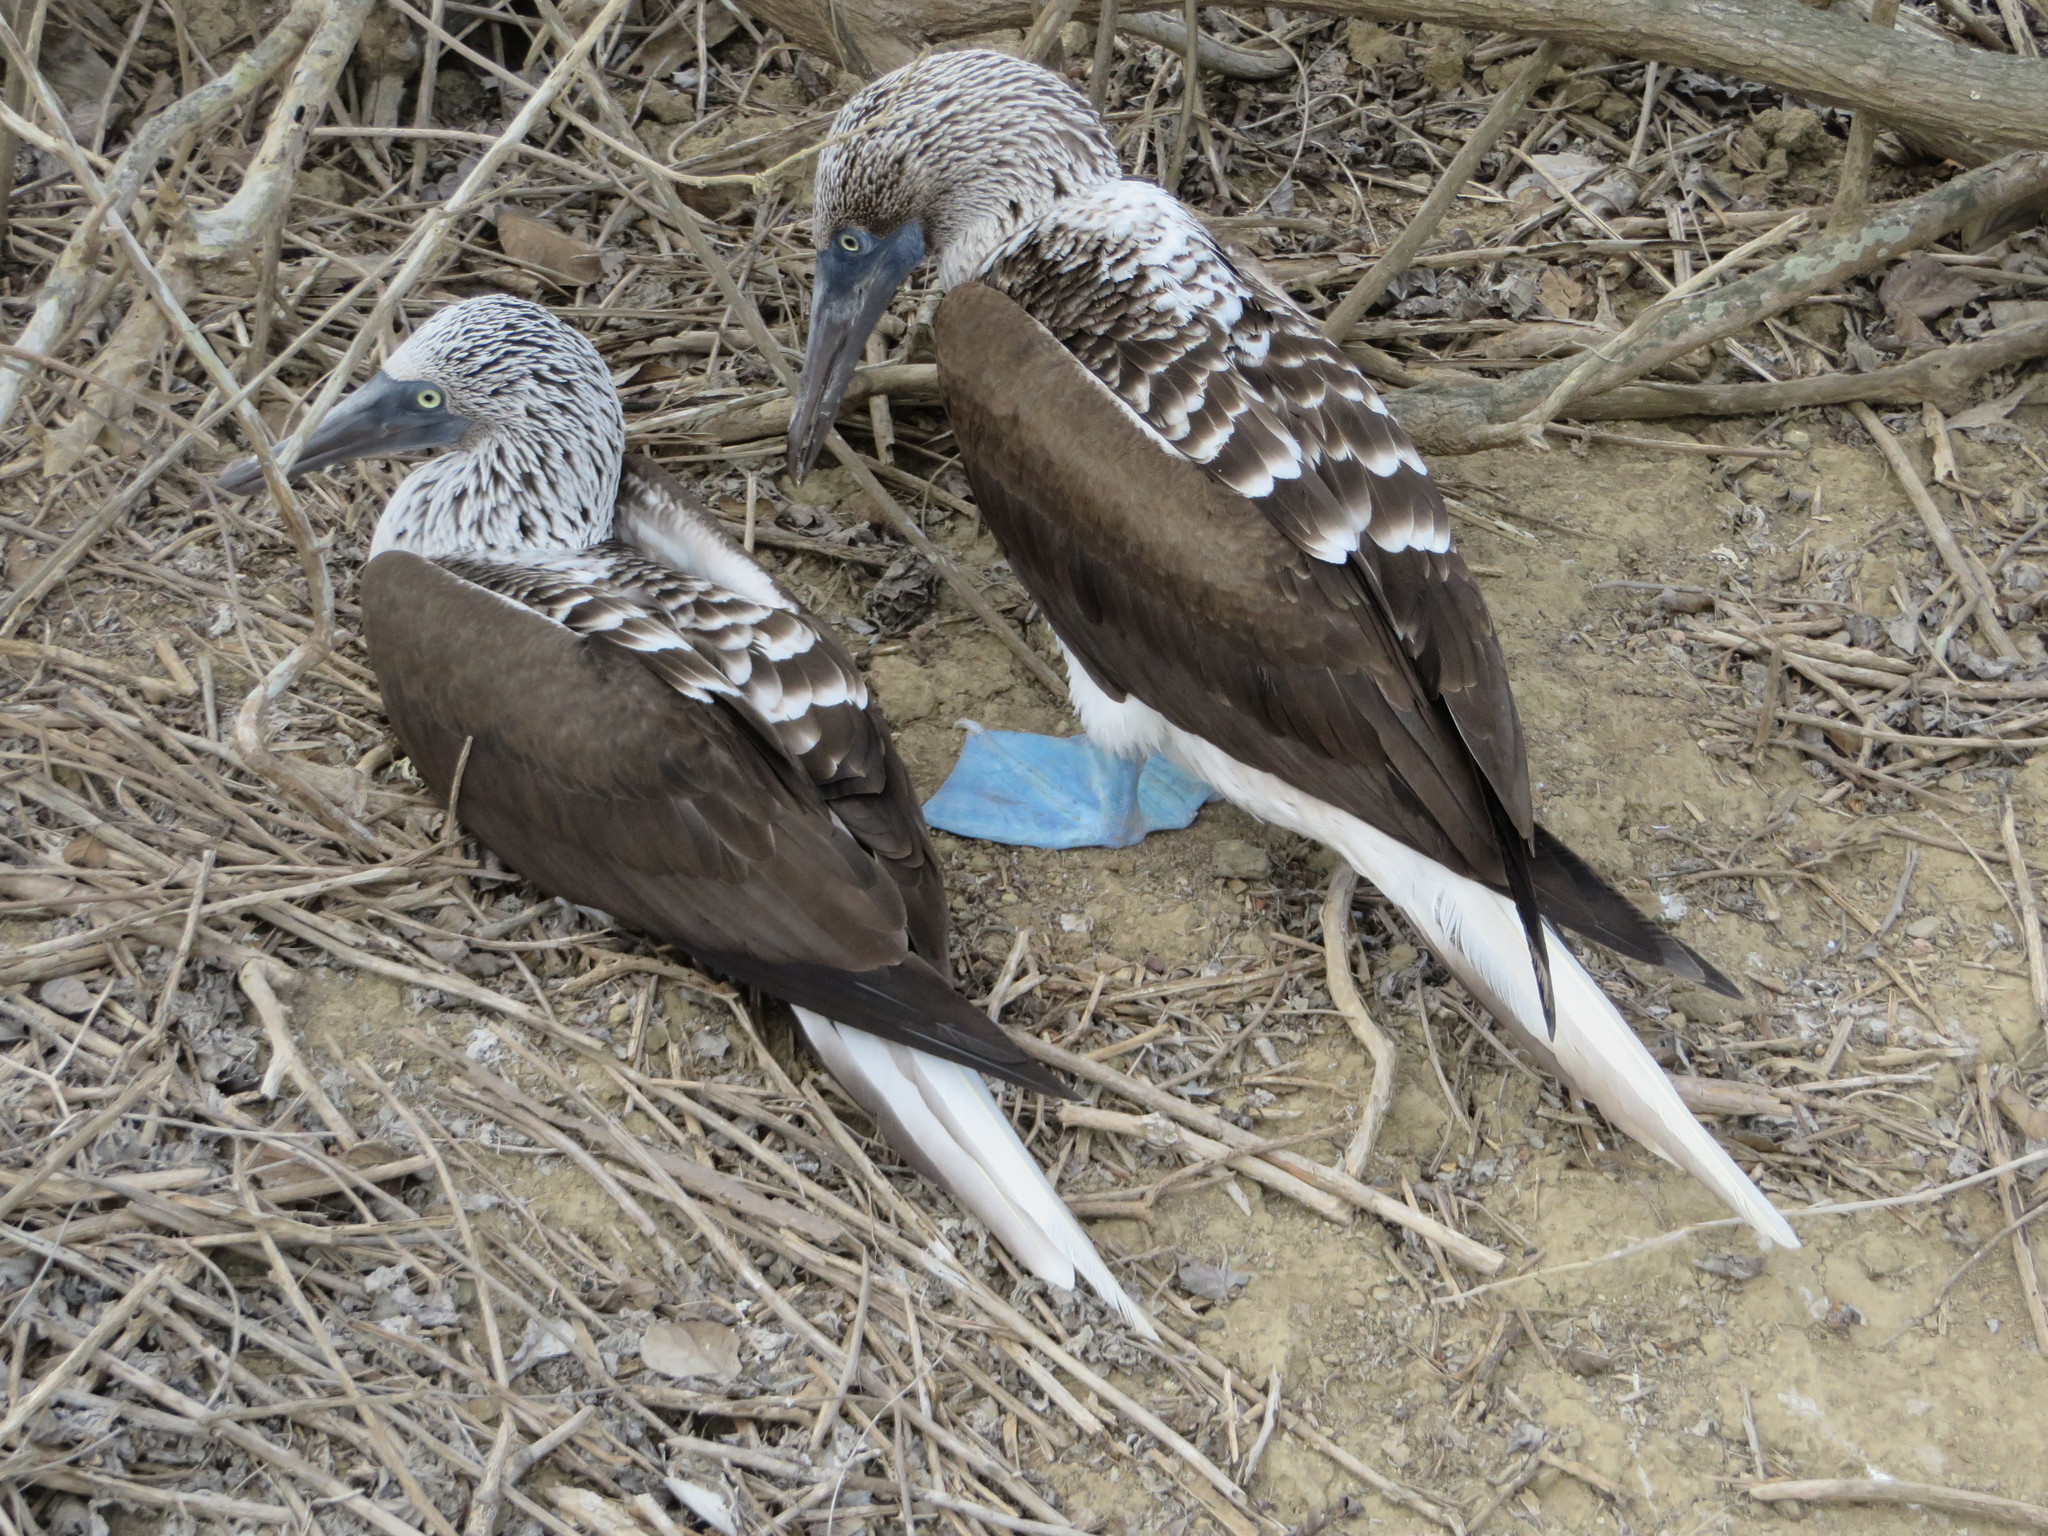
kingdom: Animalia
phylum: Chordata
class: Aves
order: Suliformes
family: Sulidae
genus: Sula
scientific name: Sula nebouxii
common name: Blue-footed booby
